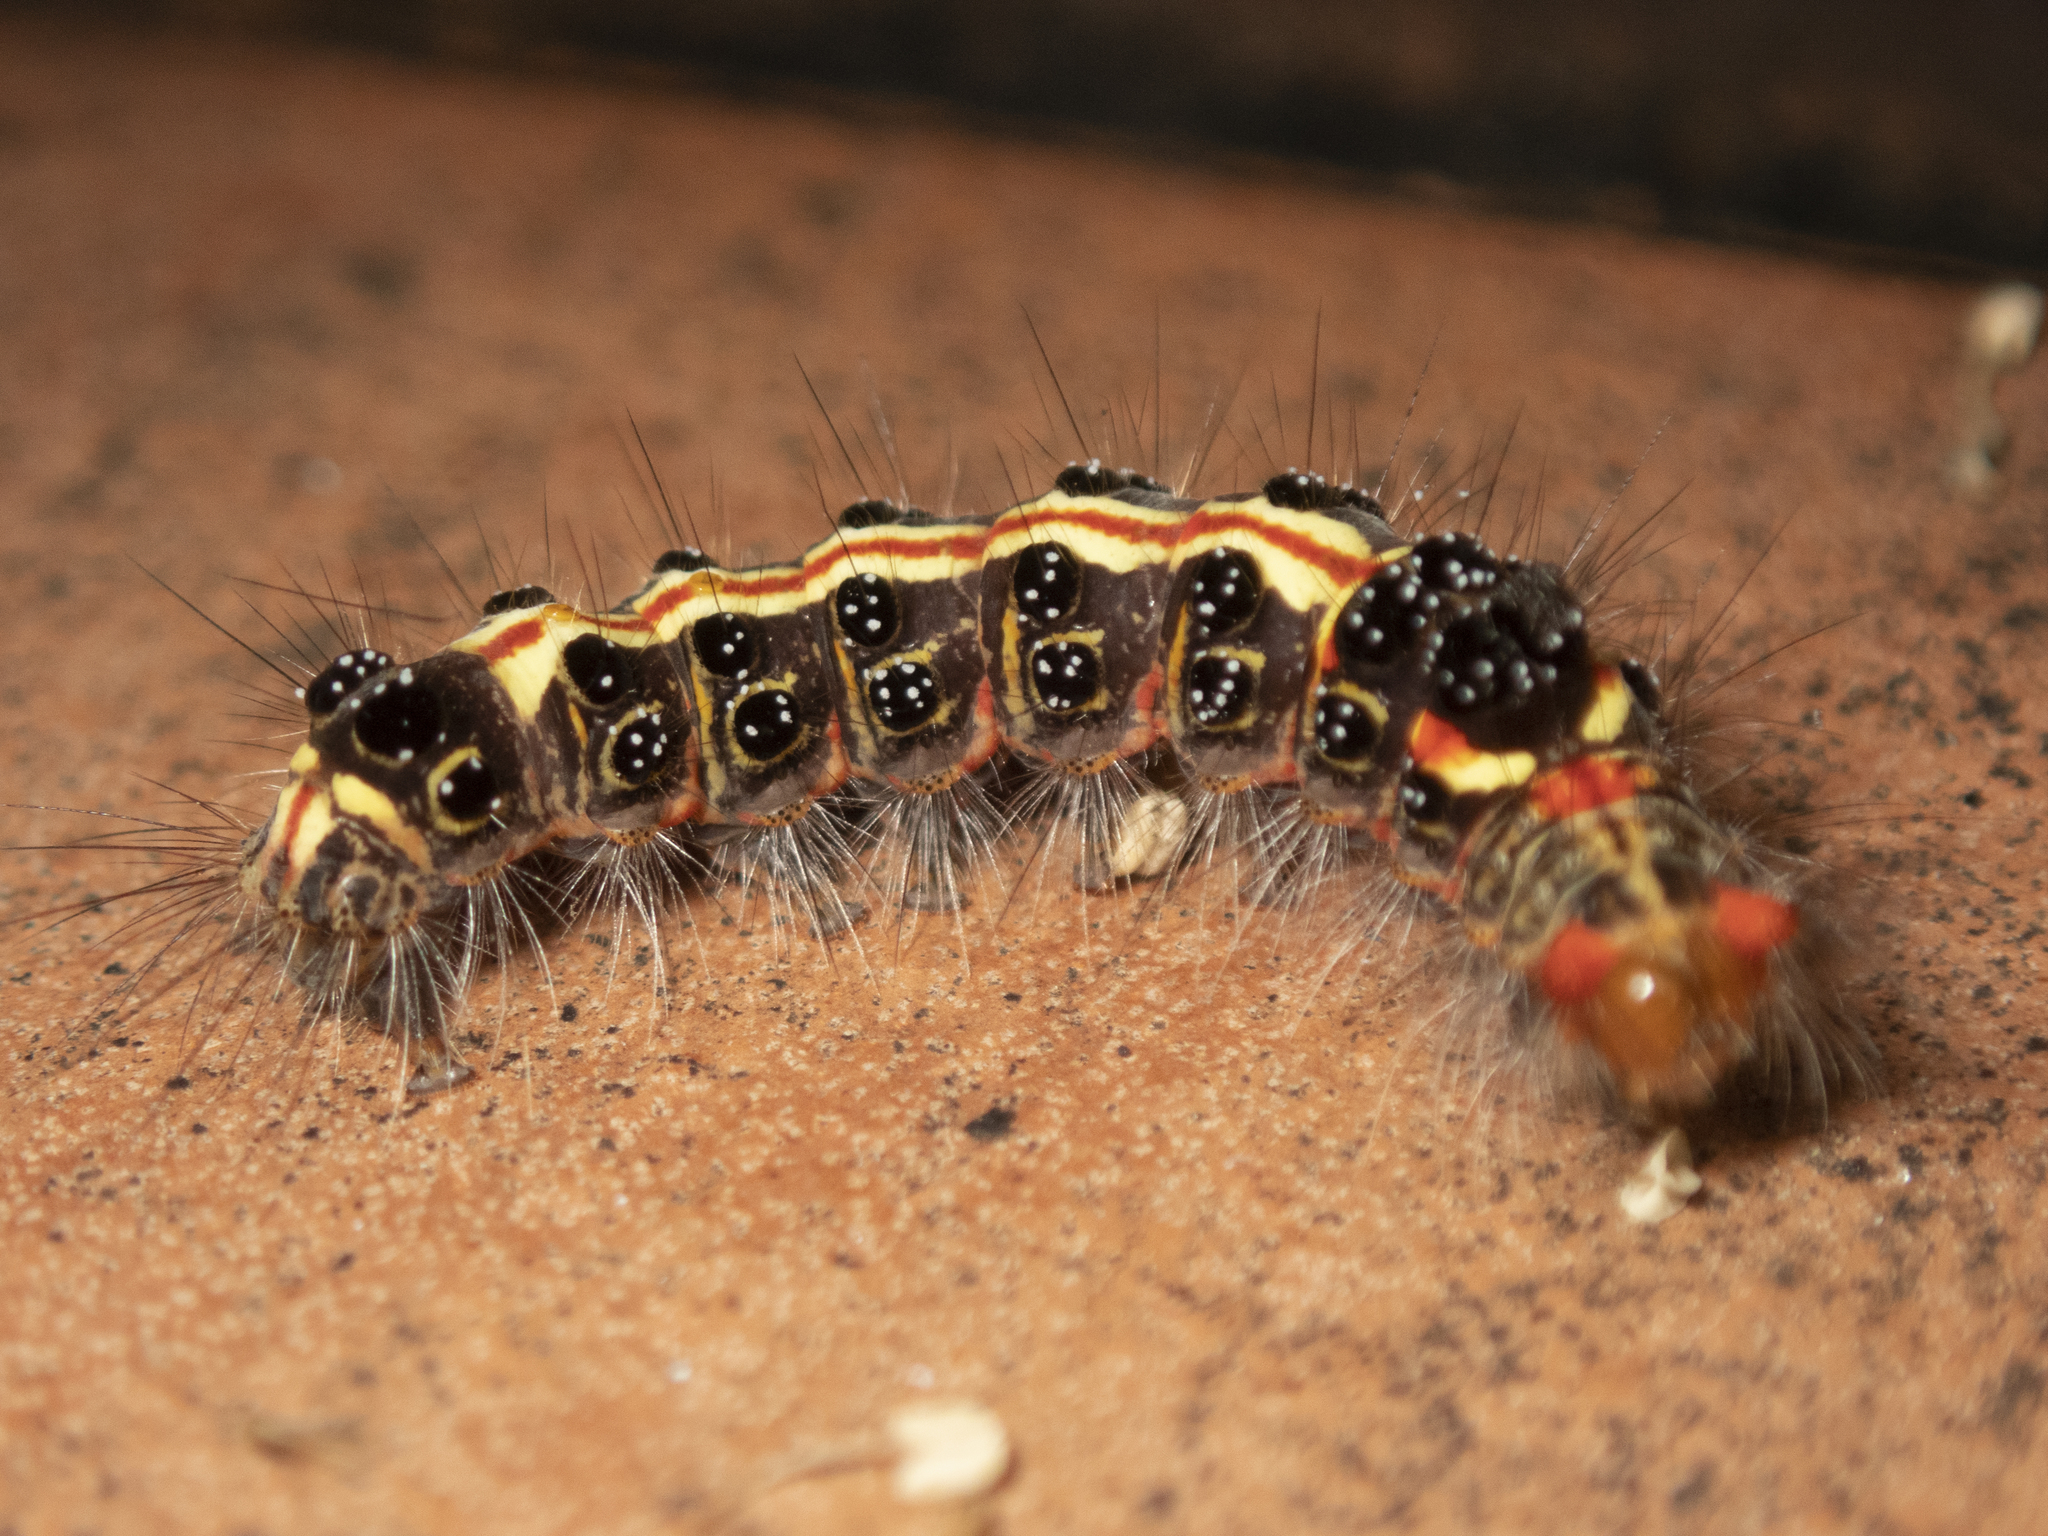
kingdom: Animalia
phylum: Arthropoda
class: Insecta
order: Lepidoptera
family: Erebidae
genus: Orvasca
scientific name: Orvasca subnotata
